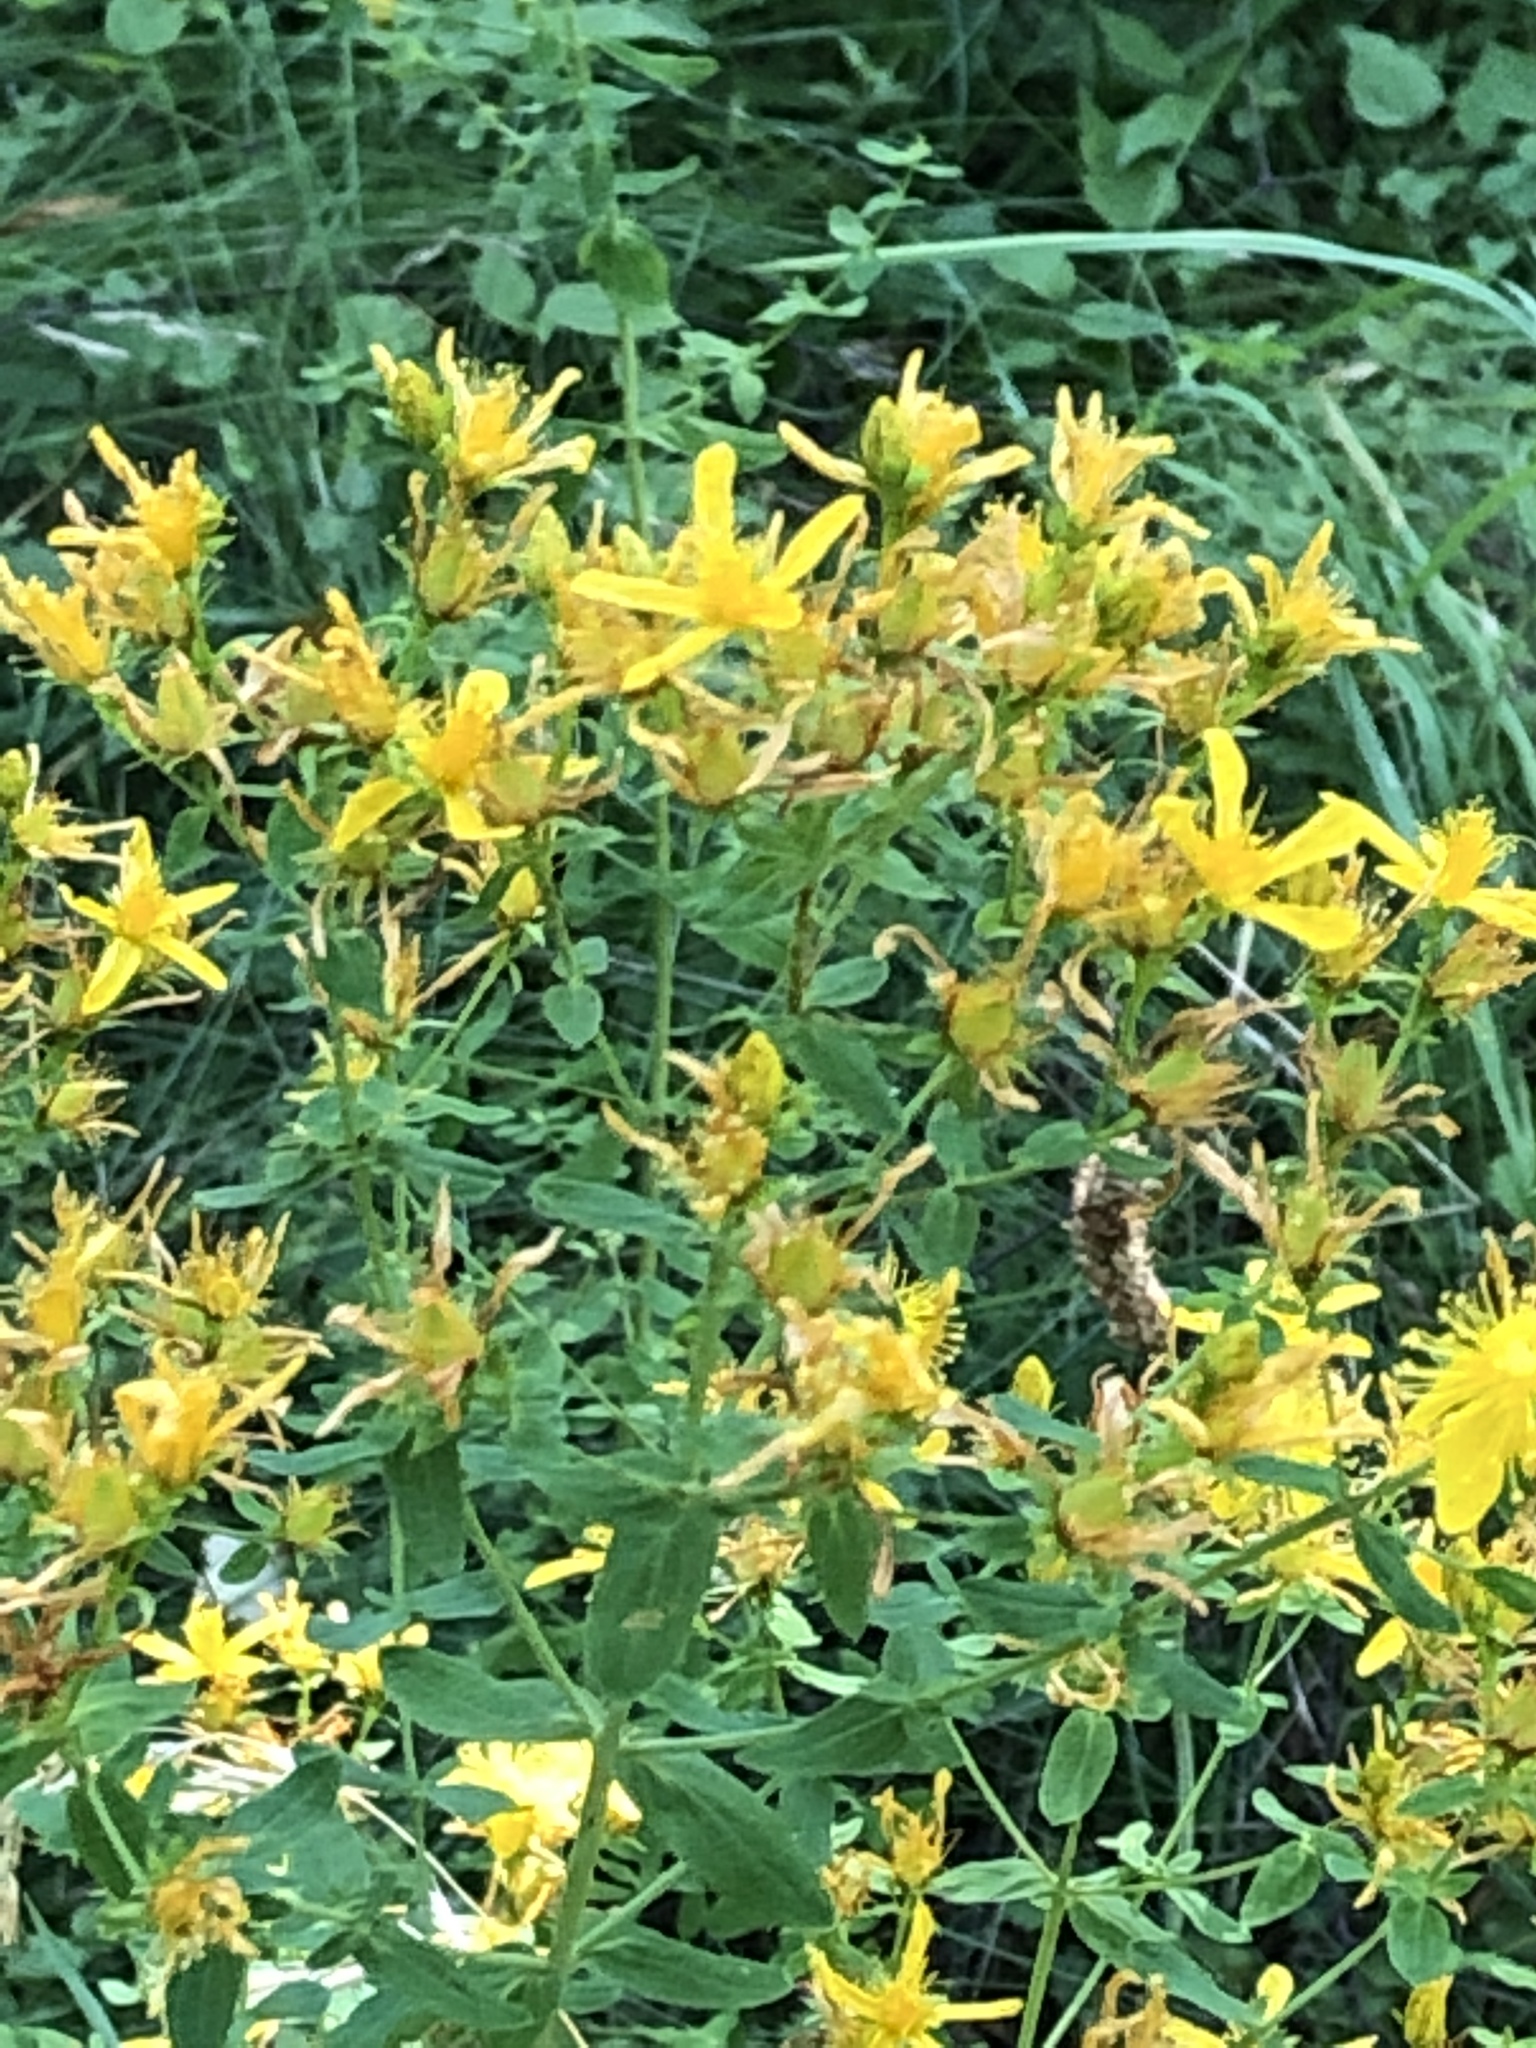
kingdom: Plantae
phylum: Tracheophyta
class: Magnoliopsida
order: Malpighiales
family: Hypericaceae
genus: Hypericum
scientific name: Hypericum perforatum
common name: Common st. johnswort
